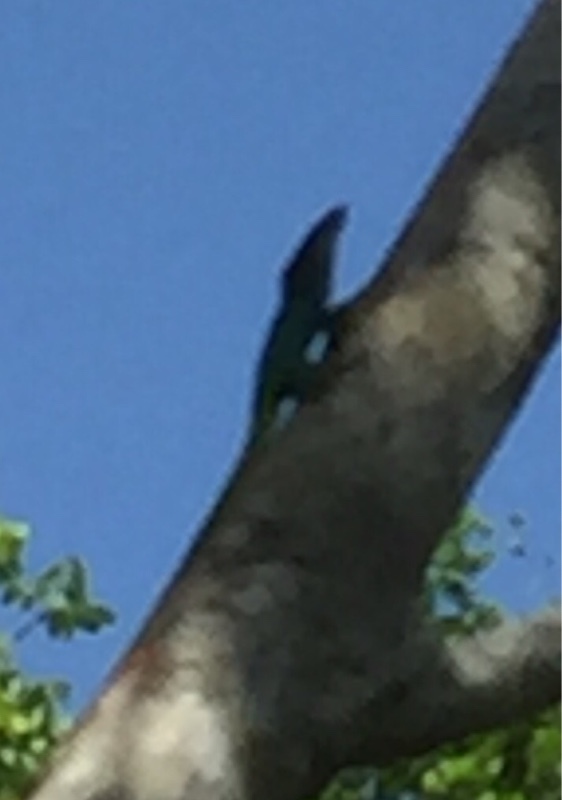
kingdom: Animalia
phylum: Chordata
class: Squamata
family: Dactyloidae
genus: Anolis
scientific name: Anolis allisoni
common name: Allison's anole
